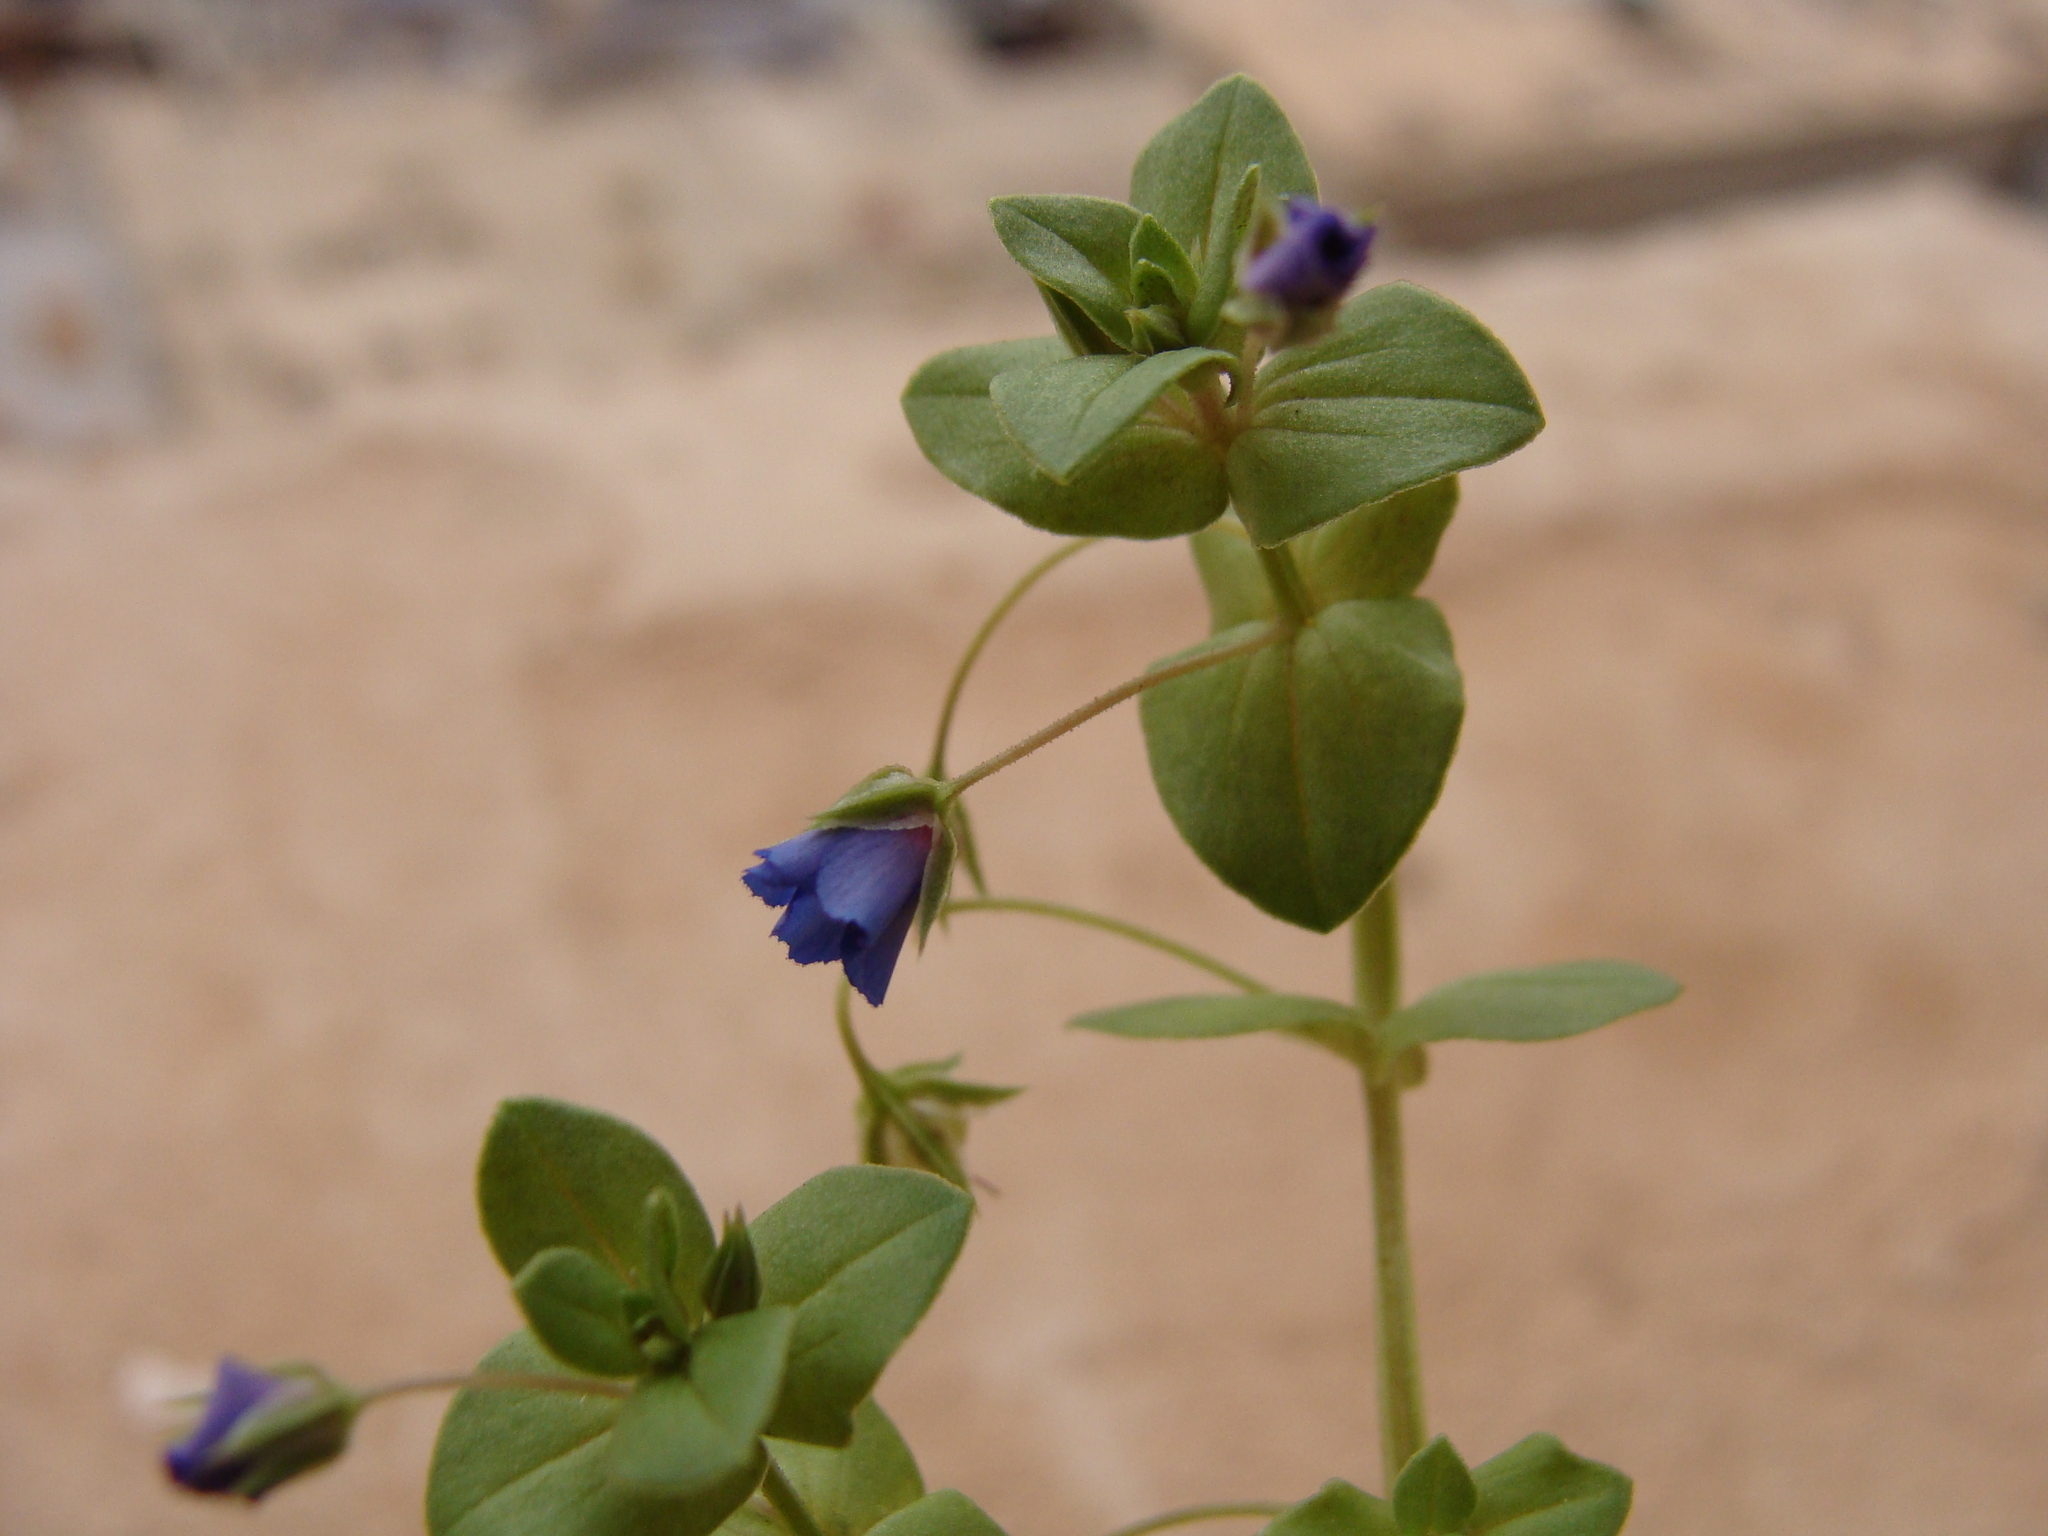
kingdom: Plantae
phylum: Tracheophyta
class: Magnoliopsida
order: Ericales
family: Primulaceae
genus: Lysimachia
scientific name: Lysimachia loeflingii
